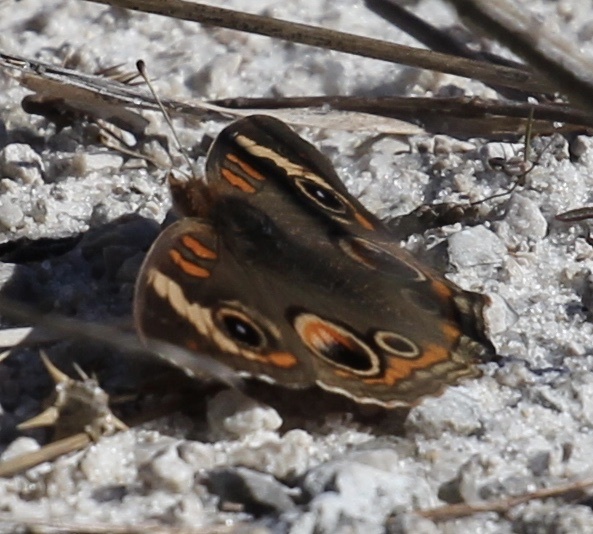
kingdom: Animalia
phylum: Arthropoda
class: Insecta
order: Lepidoptera
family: Nymphalidae
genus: Junonia
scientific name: Junonia coenia
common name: Common buckeye
